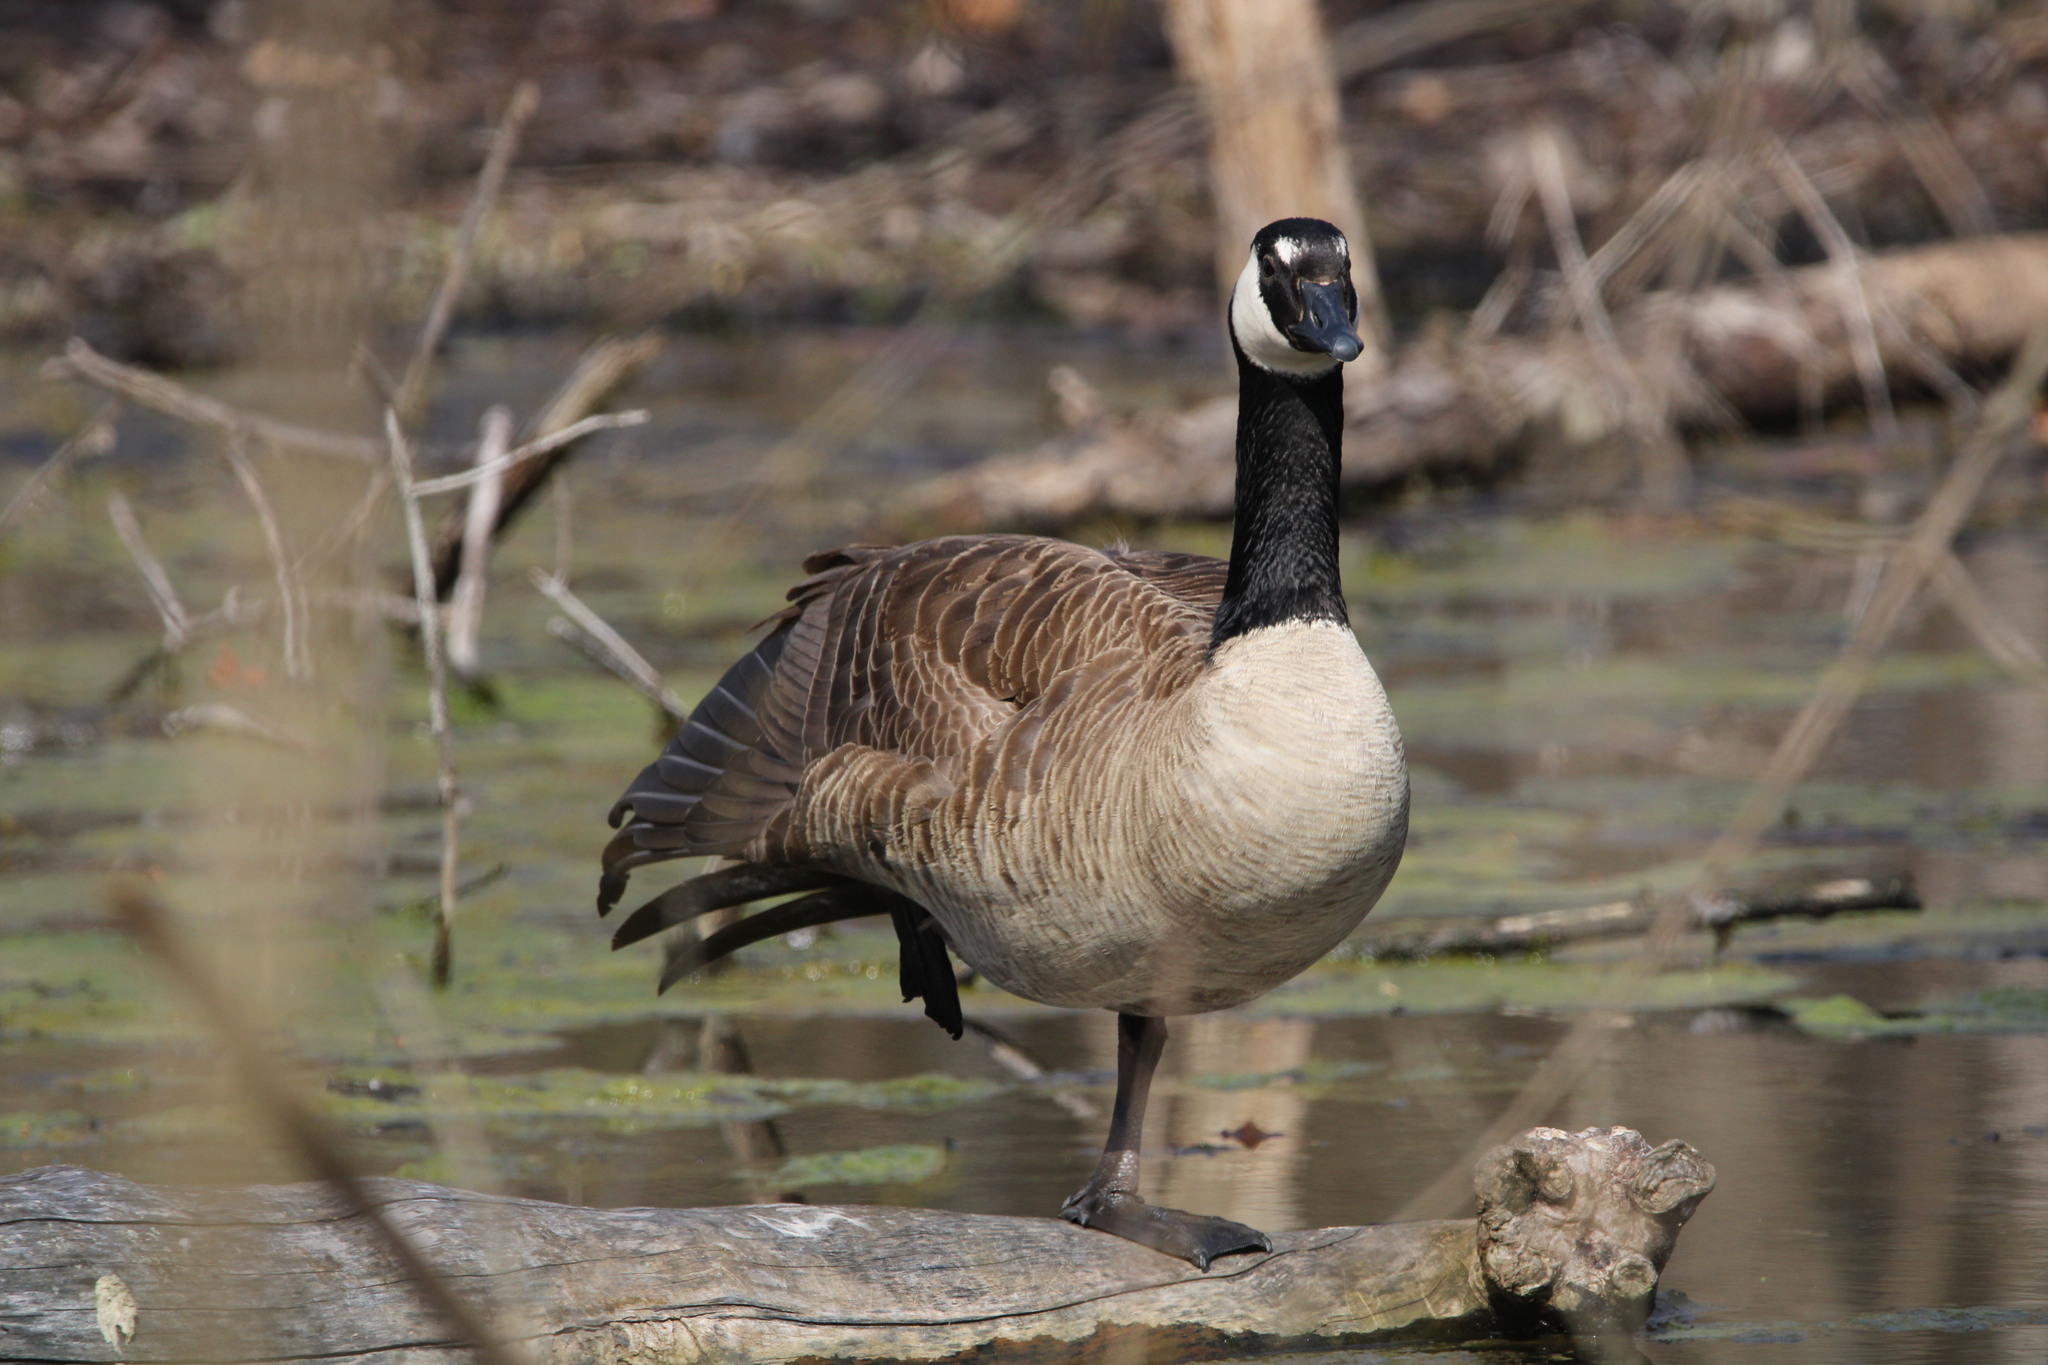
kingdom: Animalia
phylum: Chordata
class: Aves
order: Anseriformes
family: Anatidae
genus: Branta
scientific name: Branta canadensis
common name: Canada goose
